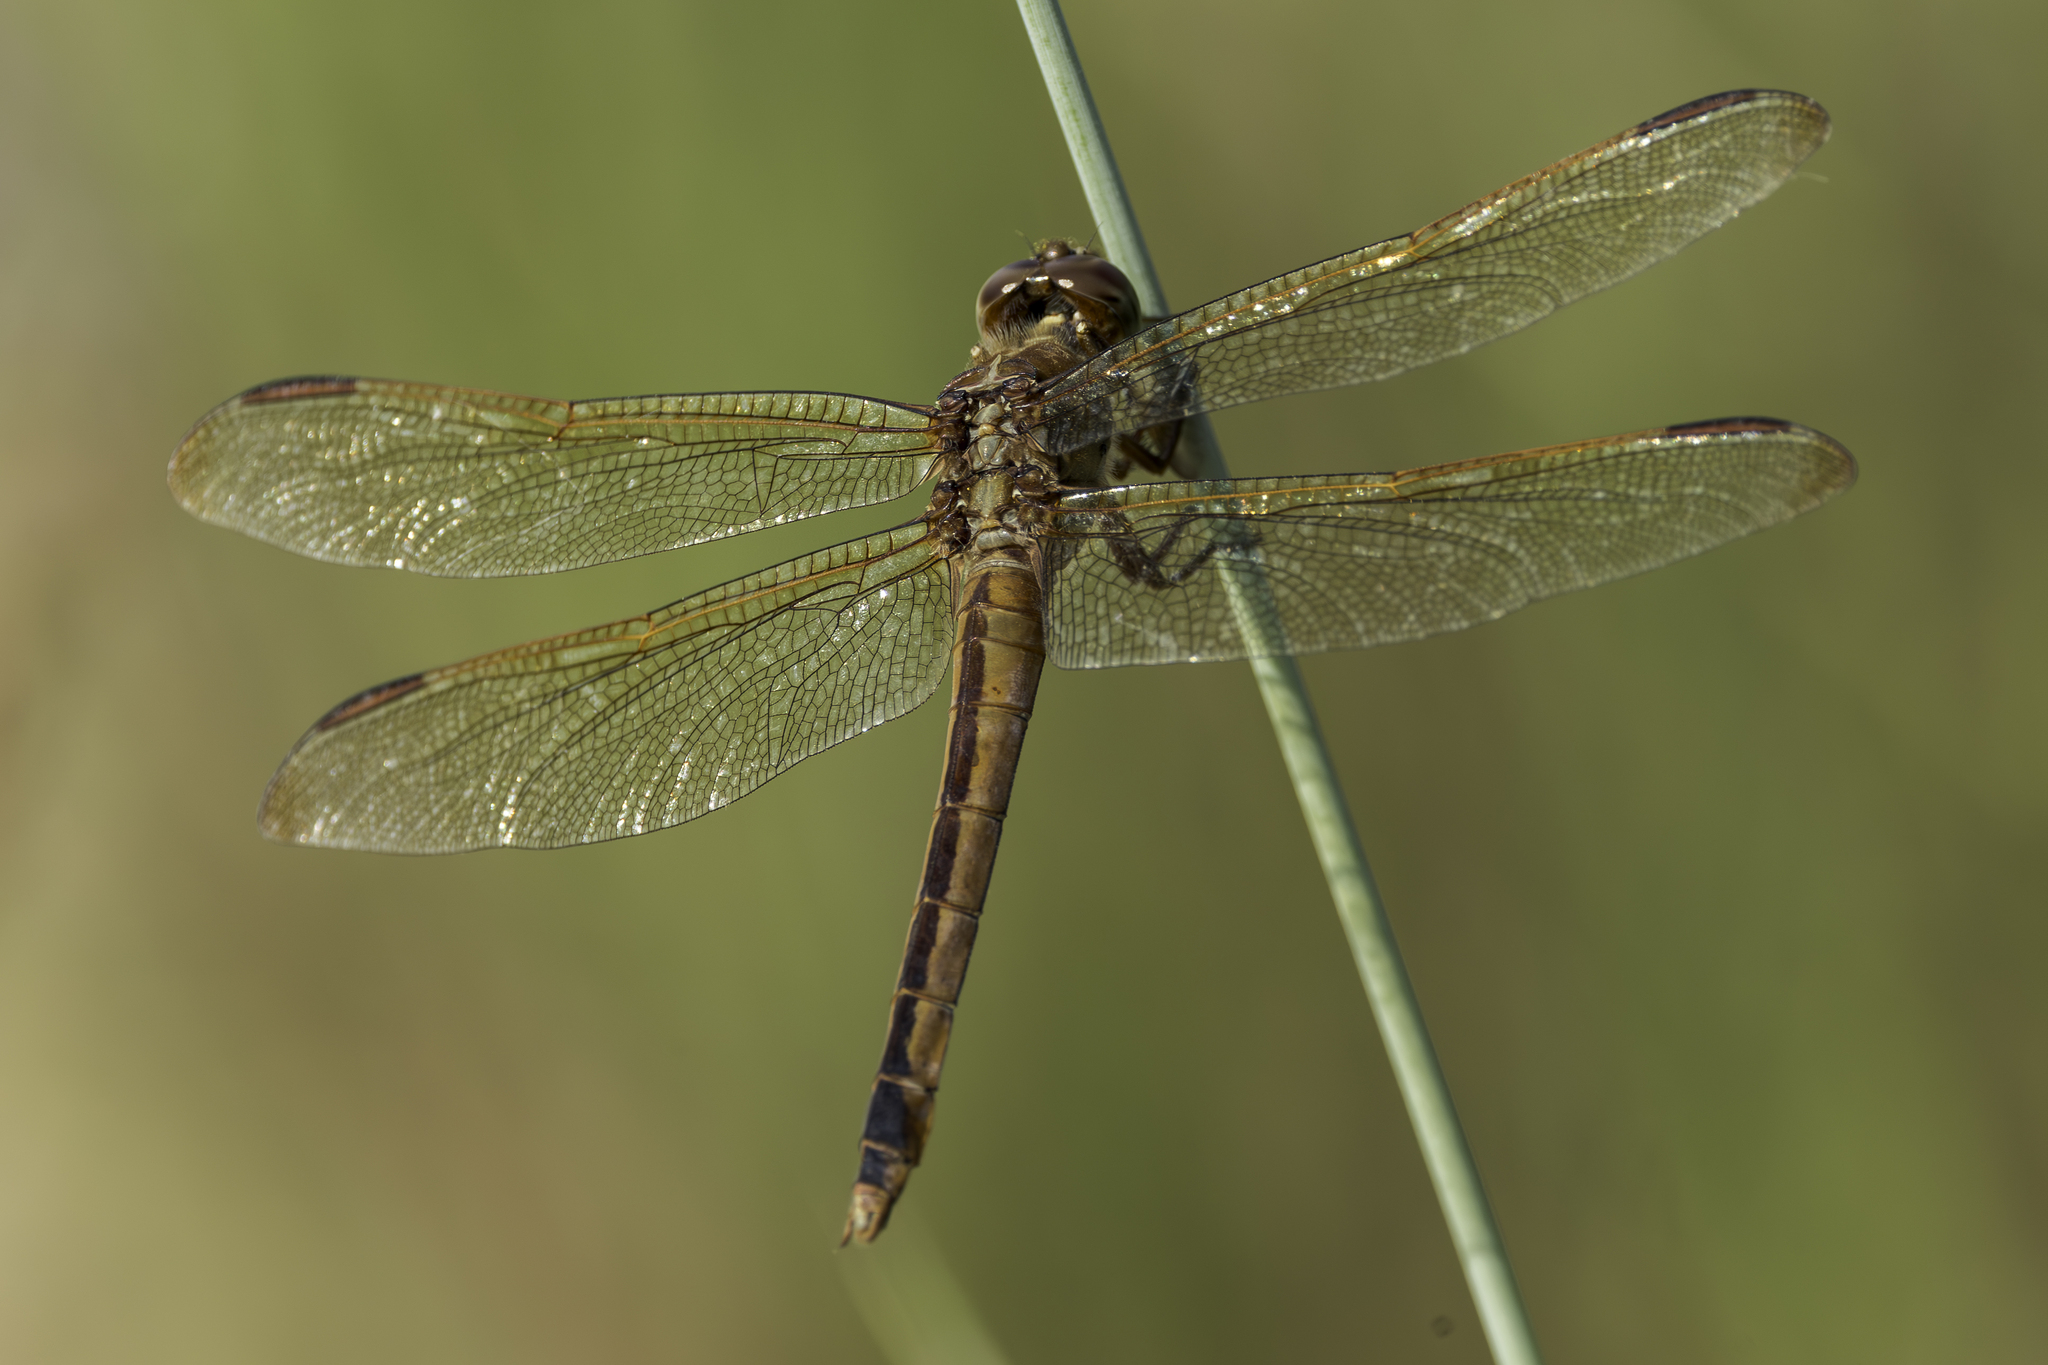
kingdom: Animalia
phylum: Arthropoda
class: Insecta
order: Odonata
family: Libellulidae
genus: Libellula
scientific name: Libellula needhami
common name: Needham's skimmer
